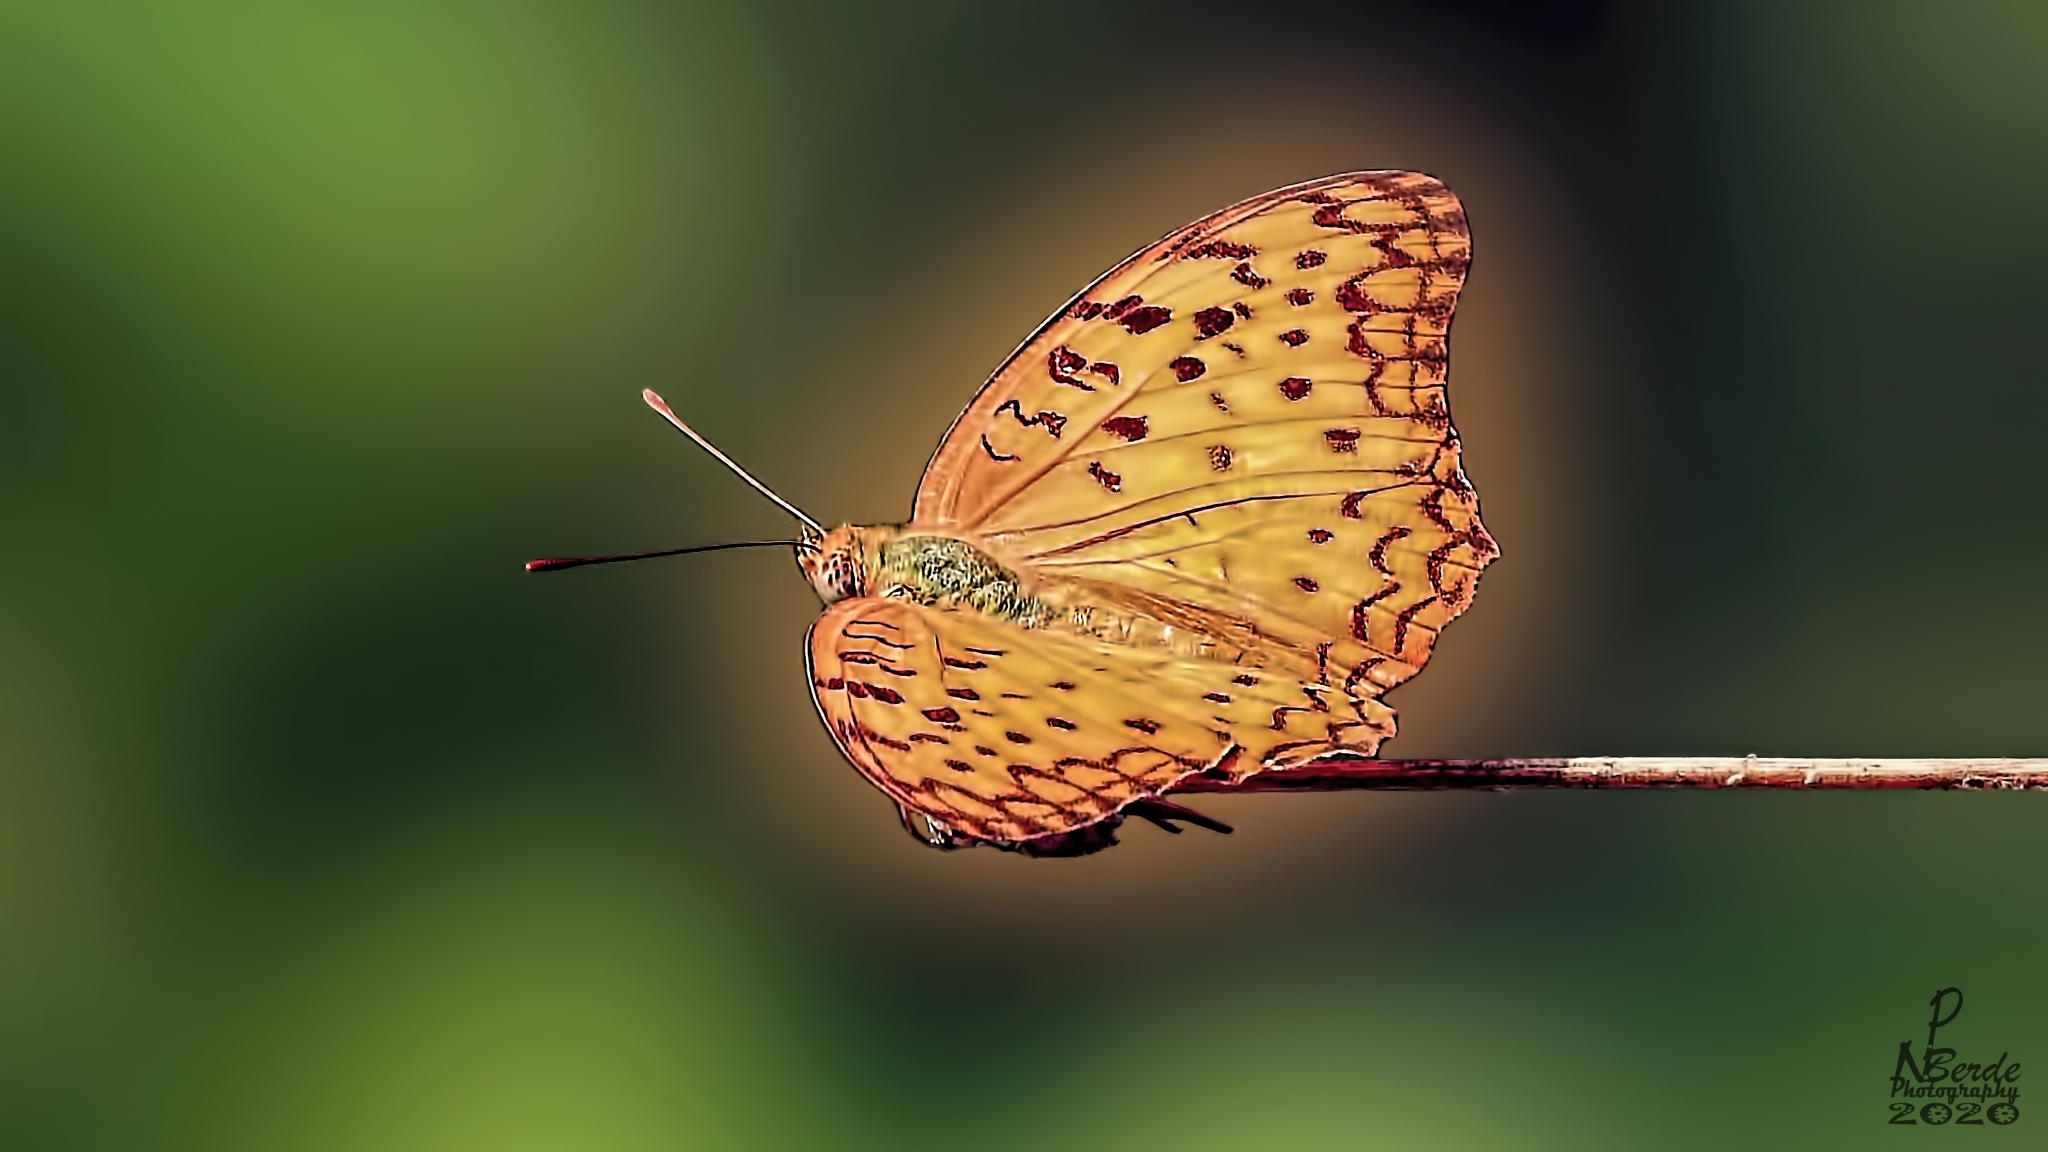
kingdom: Animalia
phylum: Arthropoda
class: Insecta
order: Lepidoptera
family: Nymphalidae
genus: Phalanta
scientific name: Phalanta phalantha
